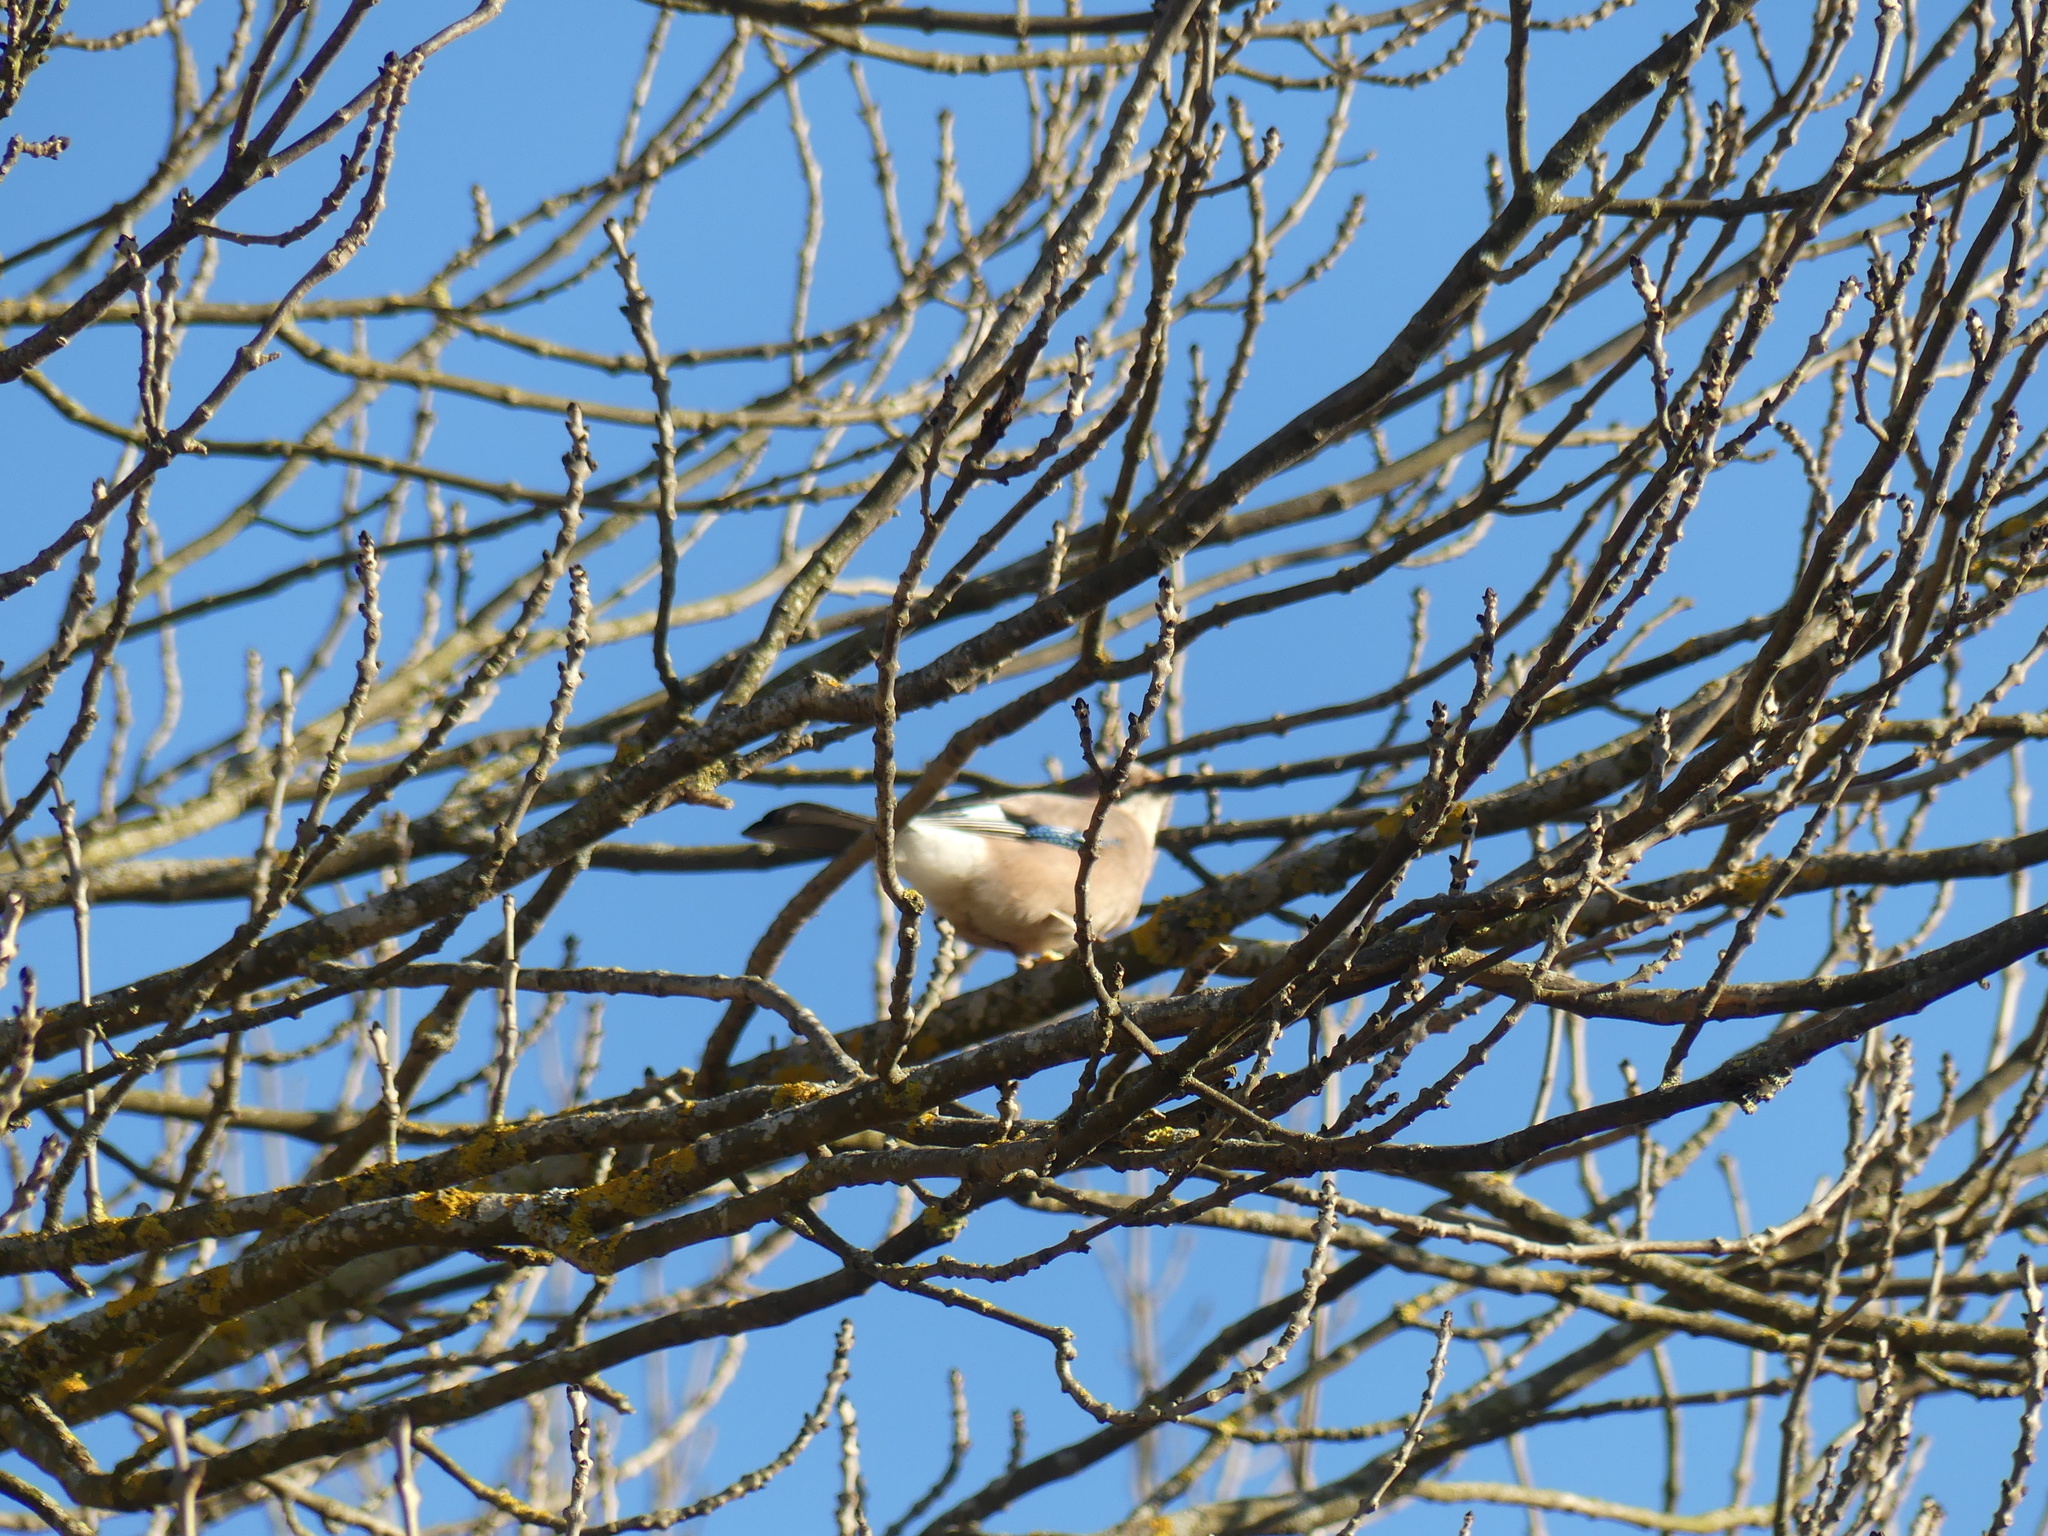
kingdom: Animalia
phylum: Chordata
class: Aves
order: Passeriformes
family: Corvidae
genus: Garrulus
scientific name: Garrulus glandarius
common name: Eurasian jay
